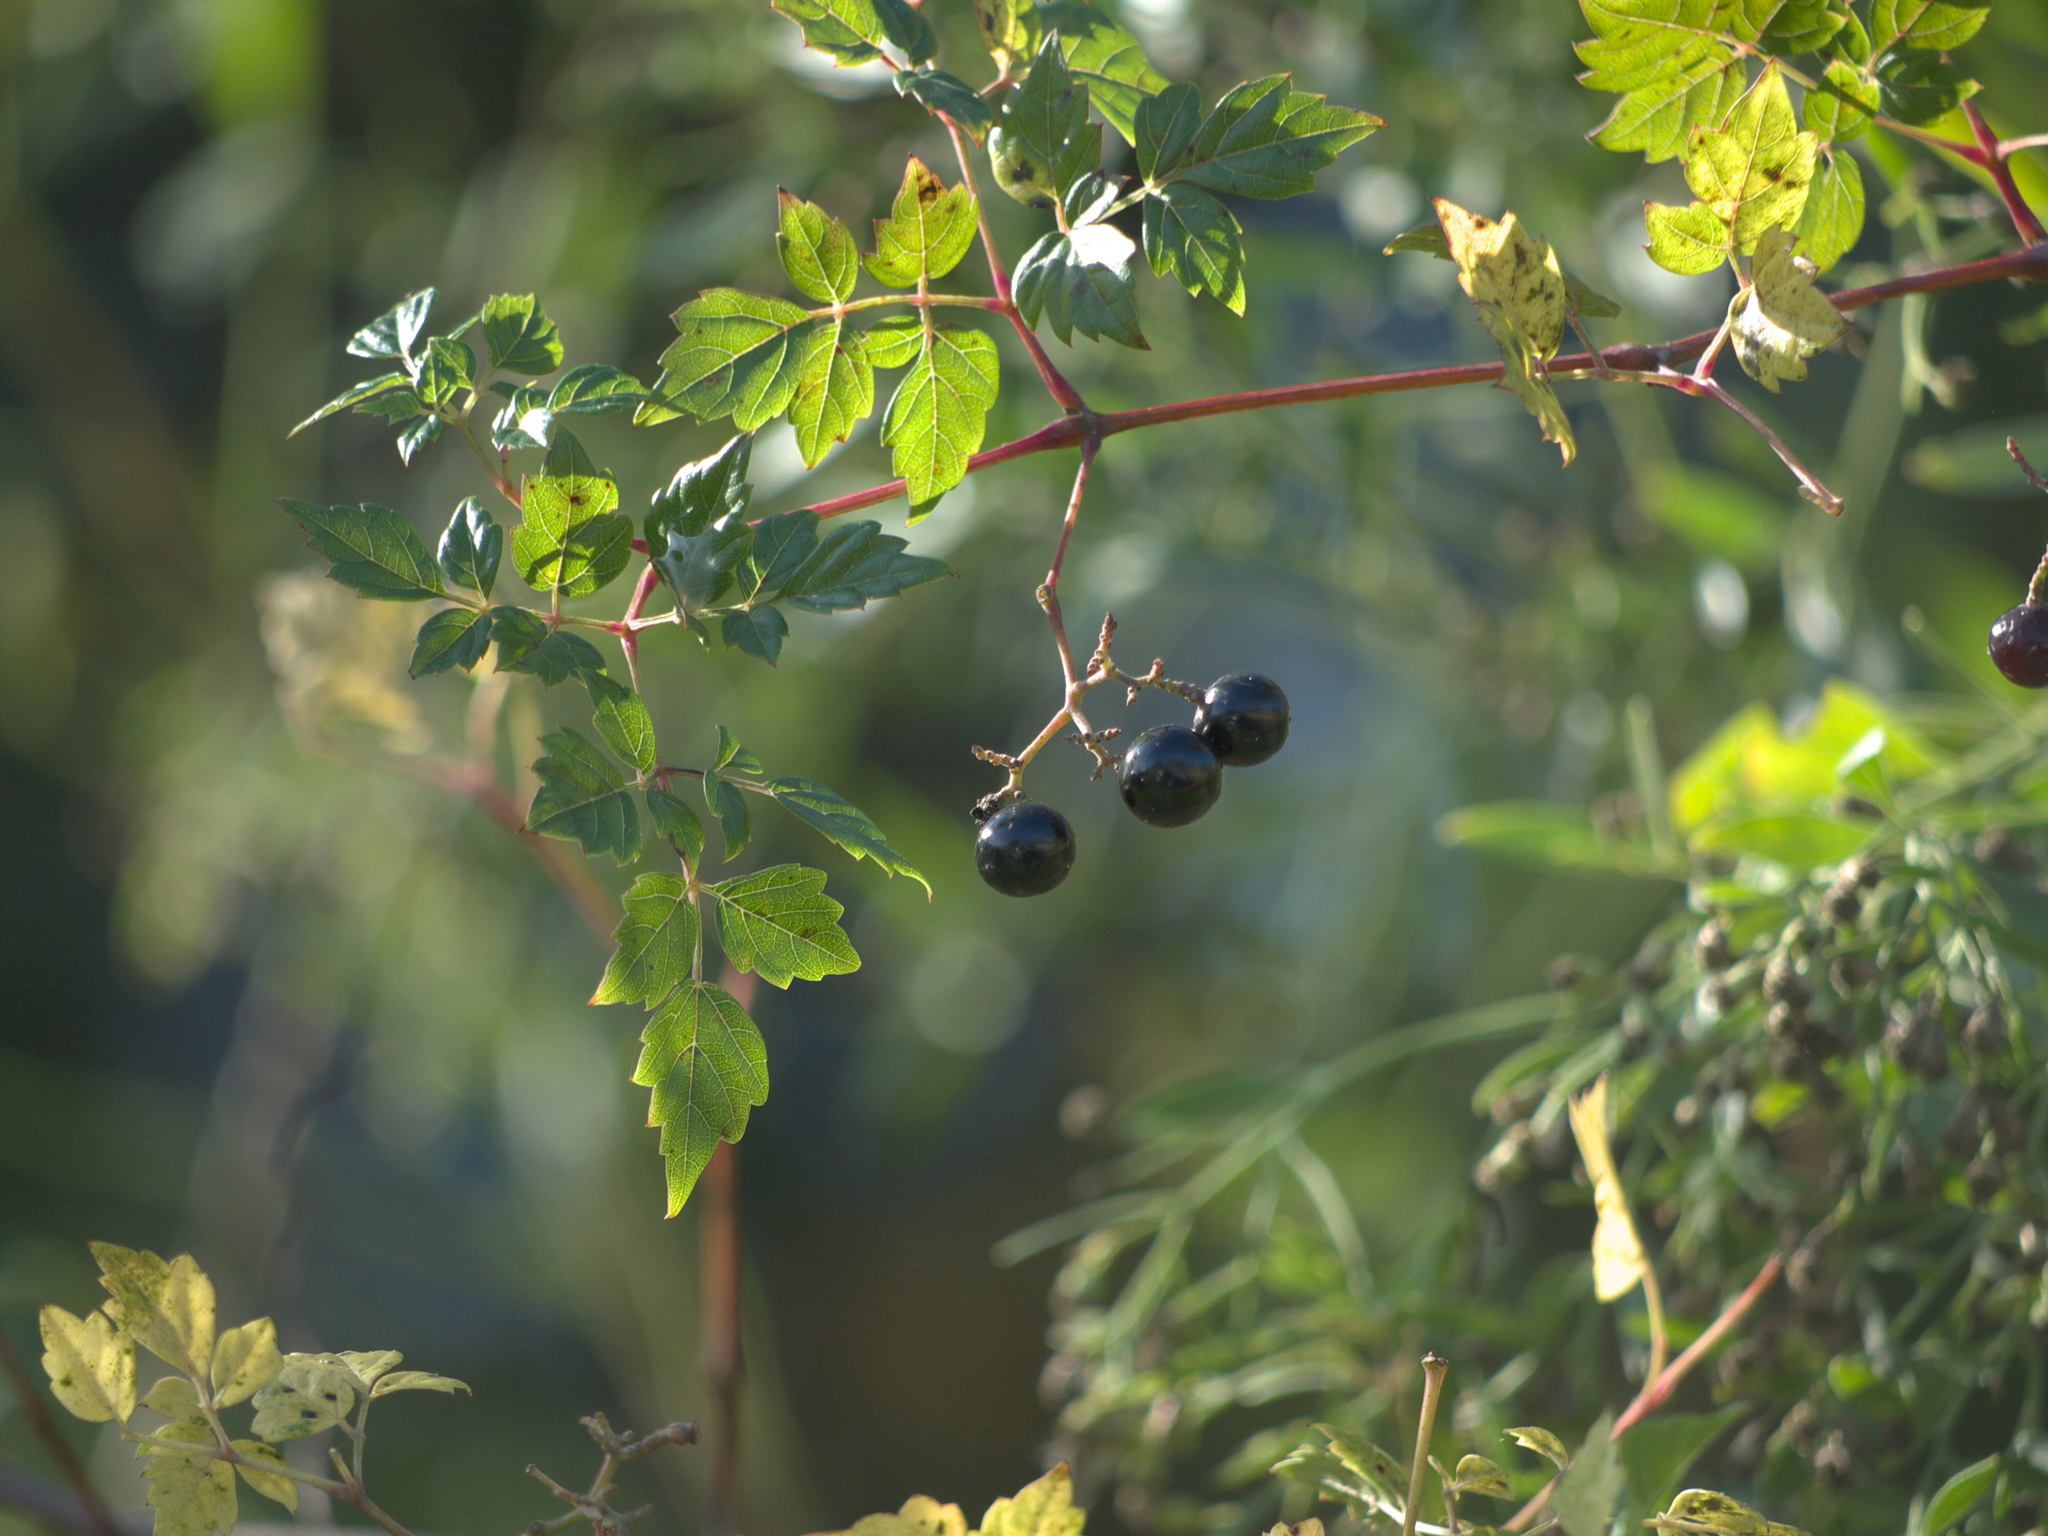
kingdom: Plantae
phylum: Tracheophyta
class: Magnoliopsida
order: Vitales
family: Vitaceae
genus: Nekemias
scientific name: Nekemias arborea
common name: Peppervine
